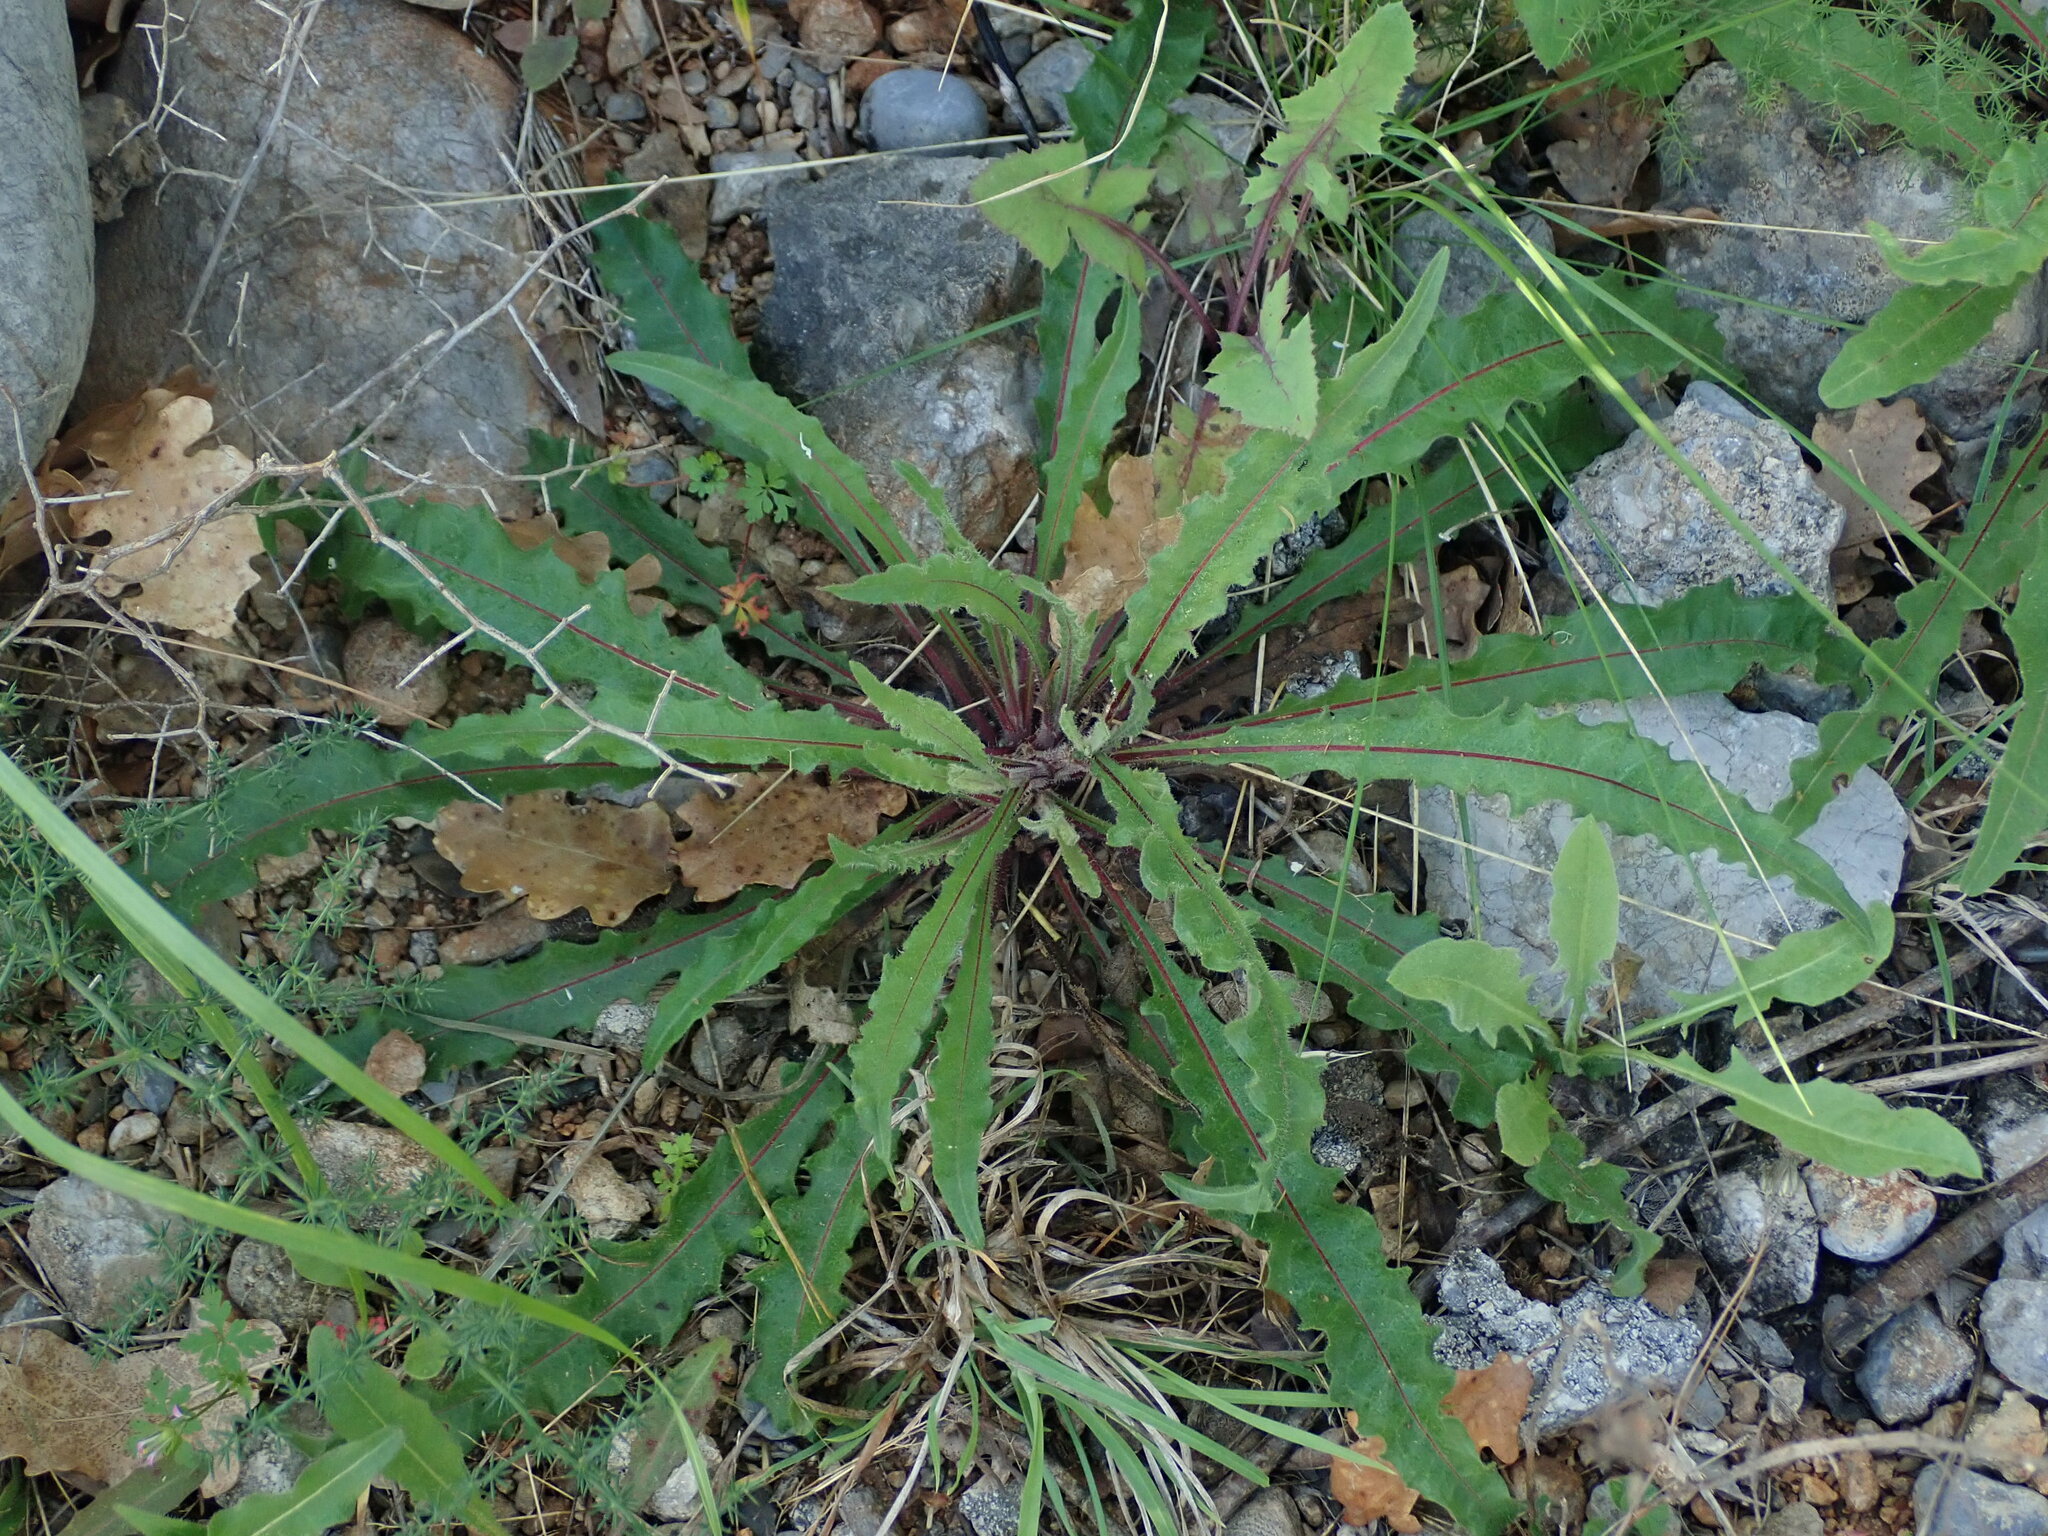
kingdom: Plantae
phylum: Tracheophyta
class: Magnoliopsida
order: Asterales
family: Asteraceae
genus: Picris
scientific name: Picris hieracioides
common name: Hawkweed oxtongue
